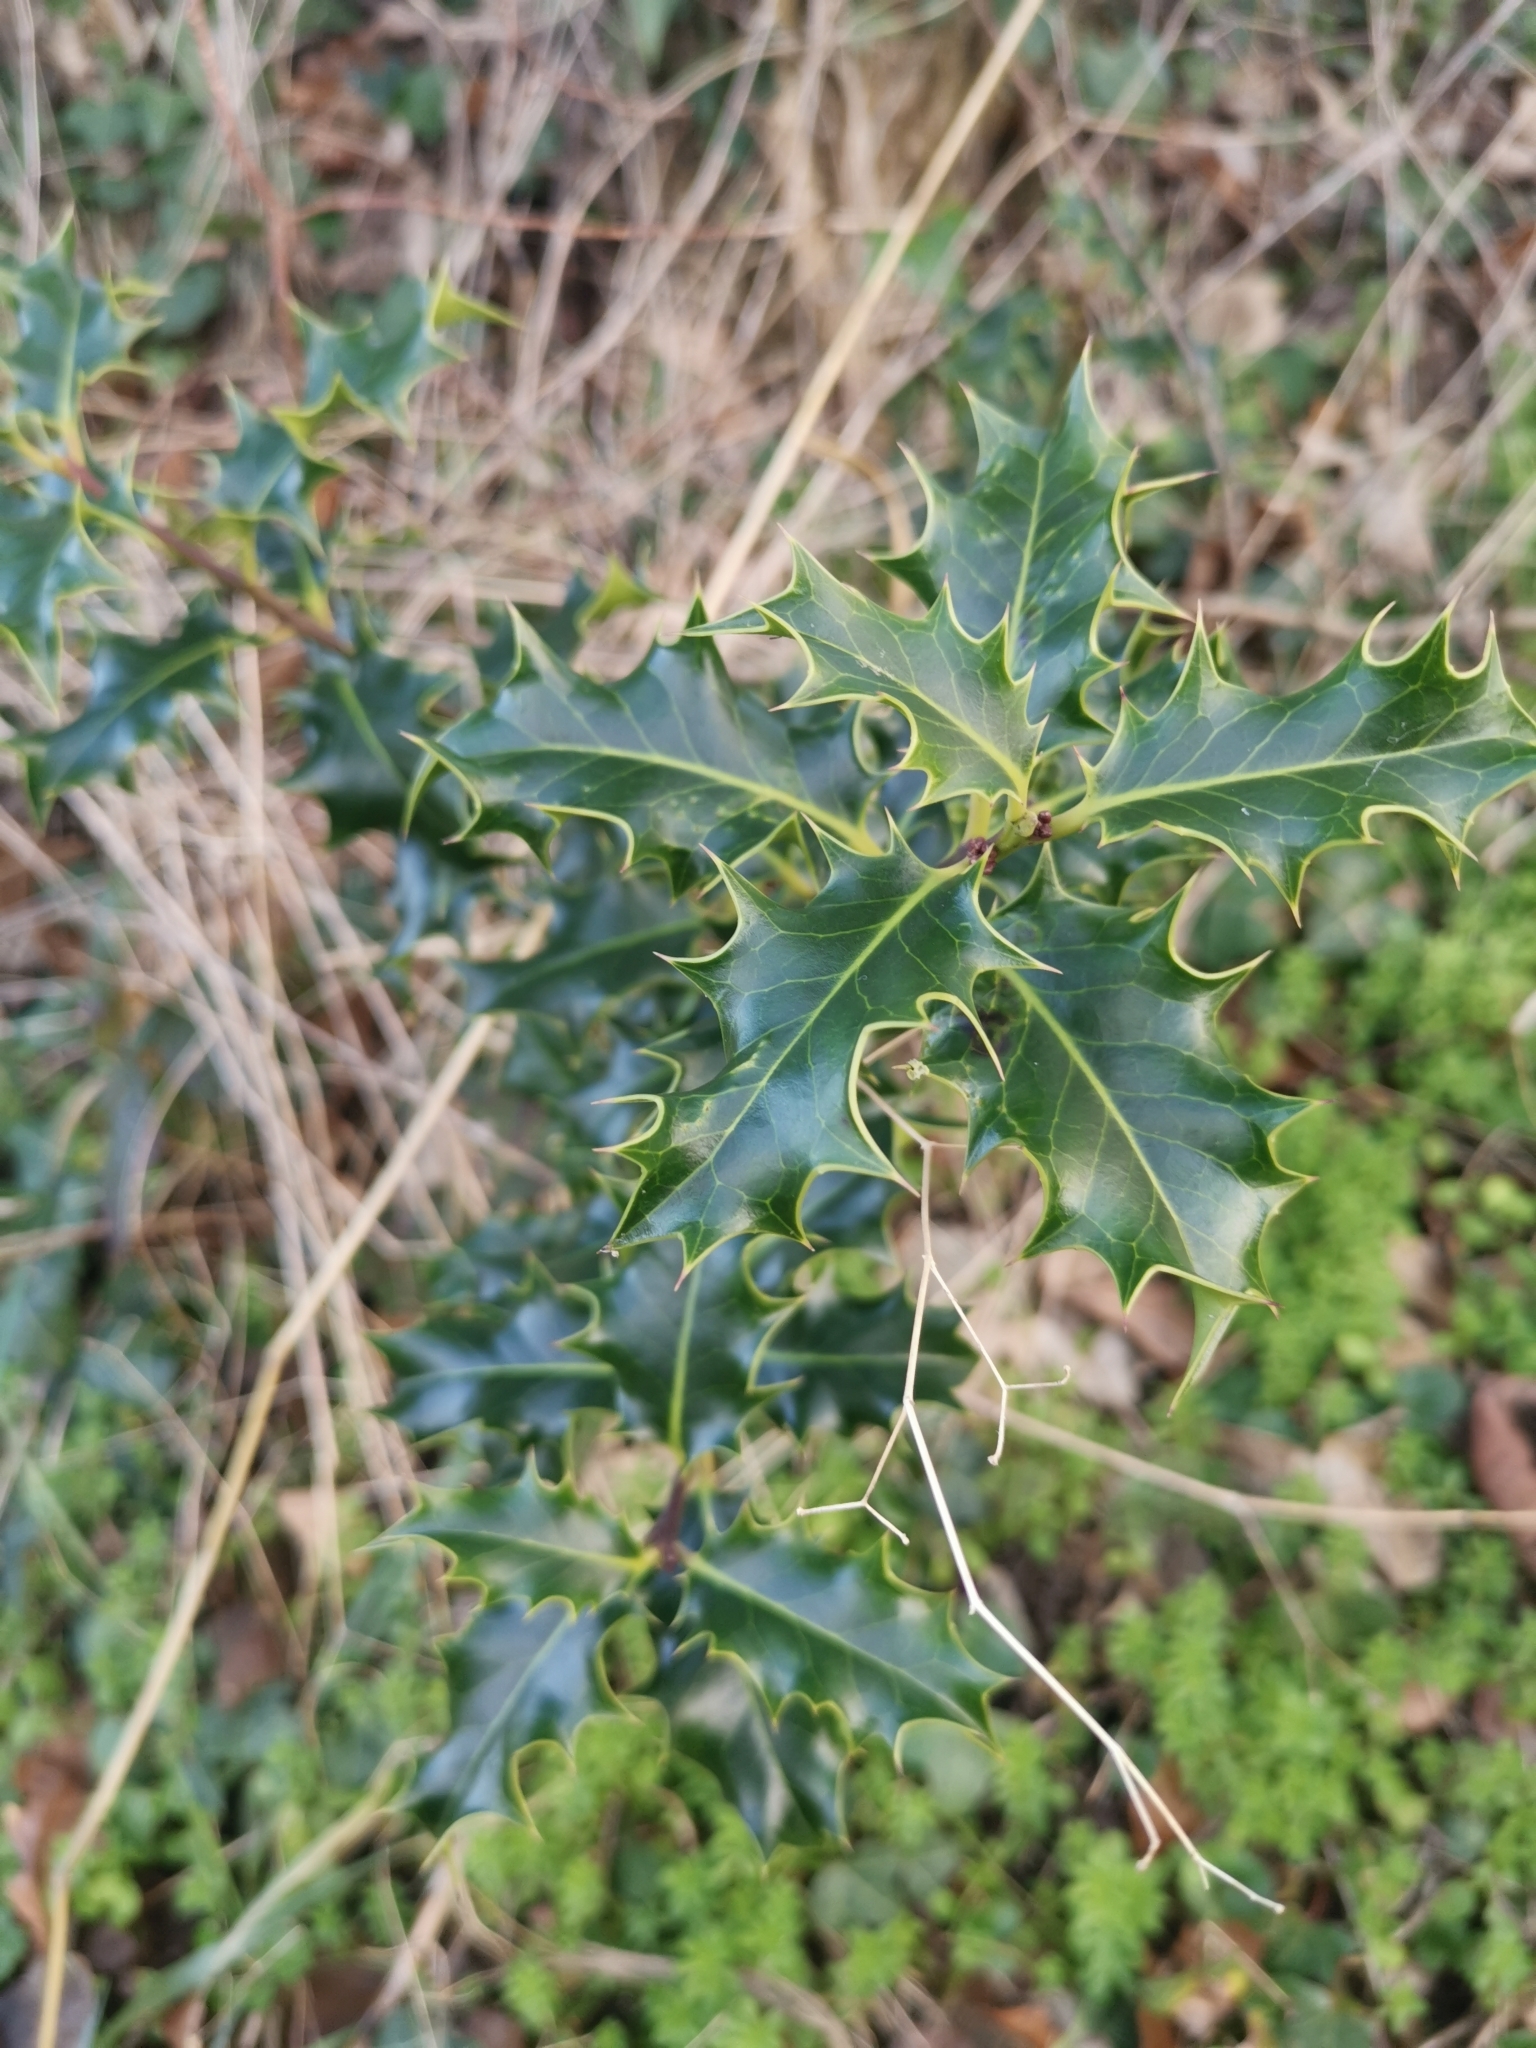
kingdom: Plantae
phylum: Tracheophyta
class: Magnoliopsida
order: Aquifoliales
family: Aquifoliaceae
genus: Ilex
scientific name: Ilex aquifolium
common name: English holly
